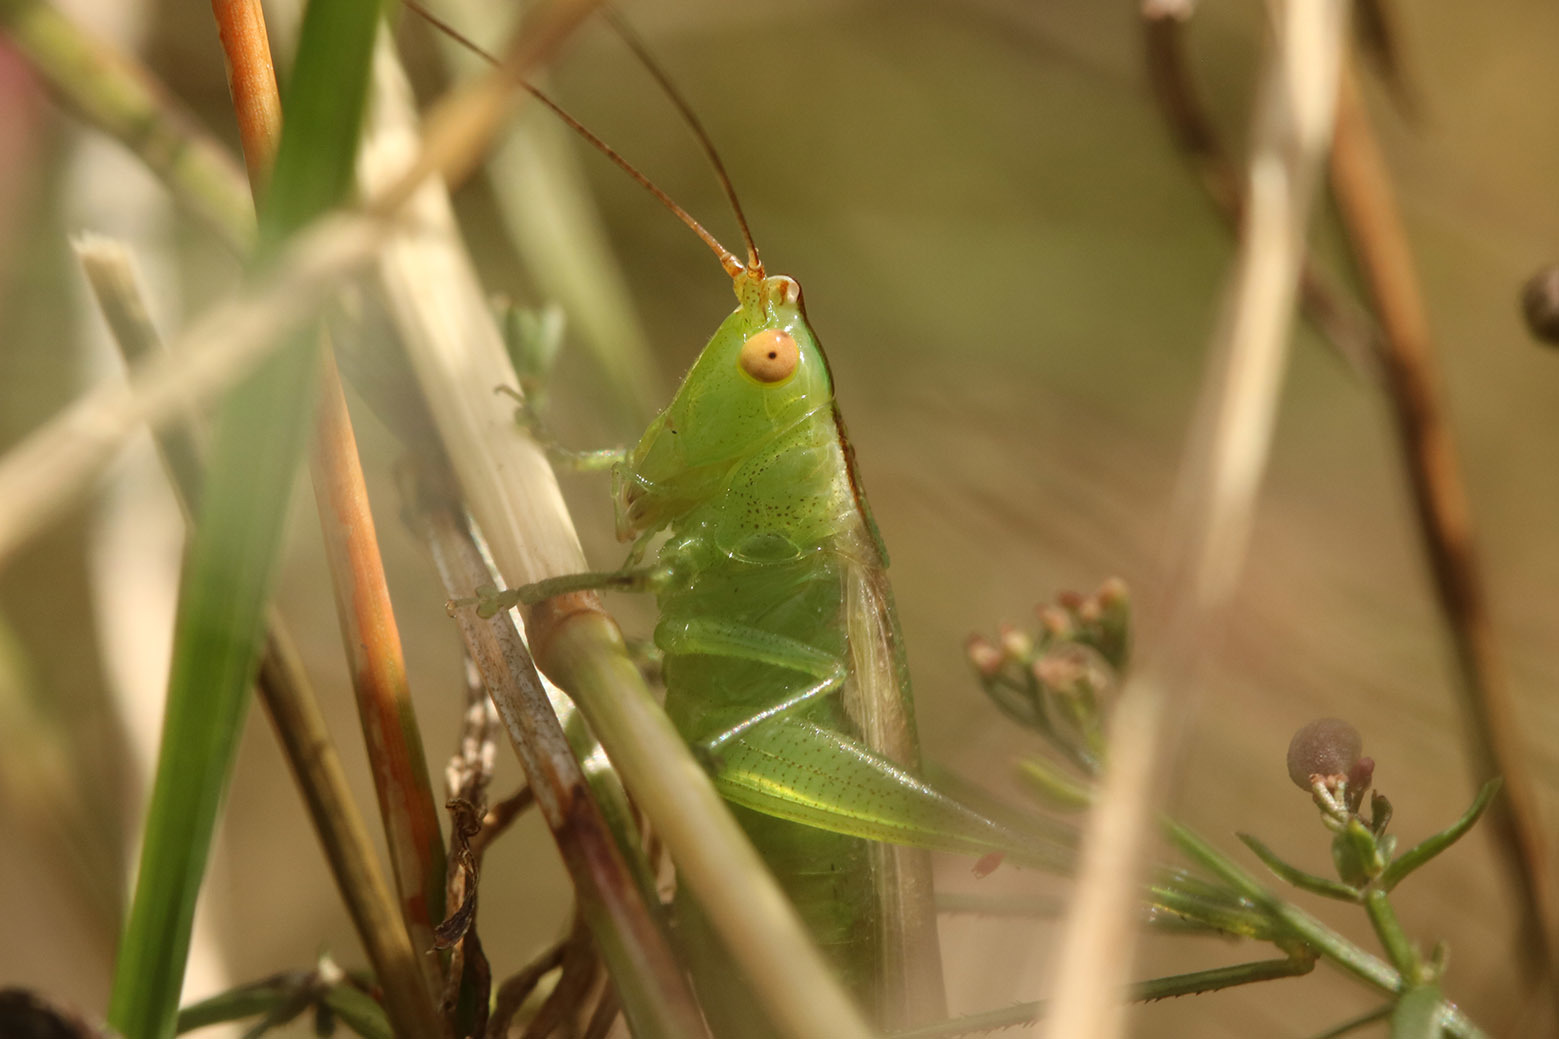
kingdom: Animalia
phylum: Arthropoda
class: Insecta
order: Orthoptera
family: Tettigoniidae
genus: Conocephalus
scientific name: Conocephalus longipes
